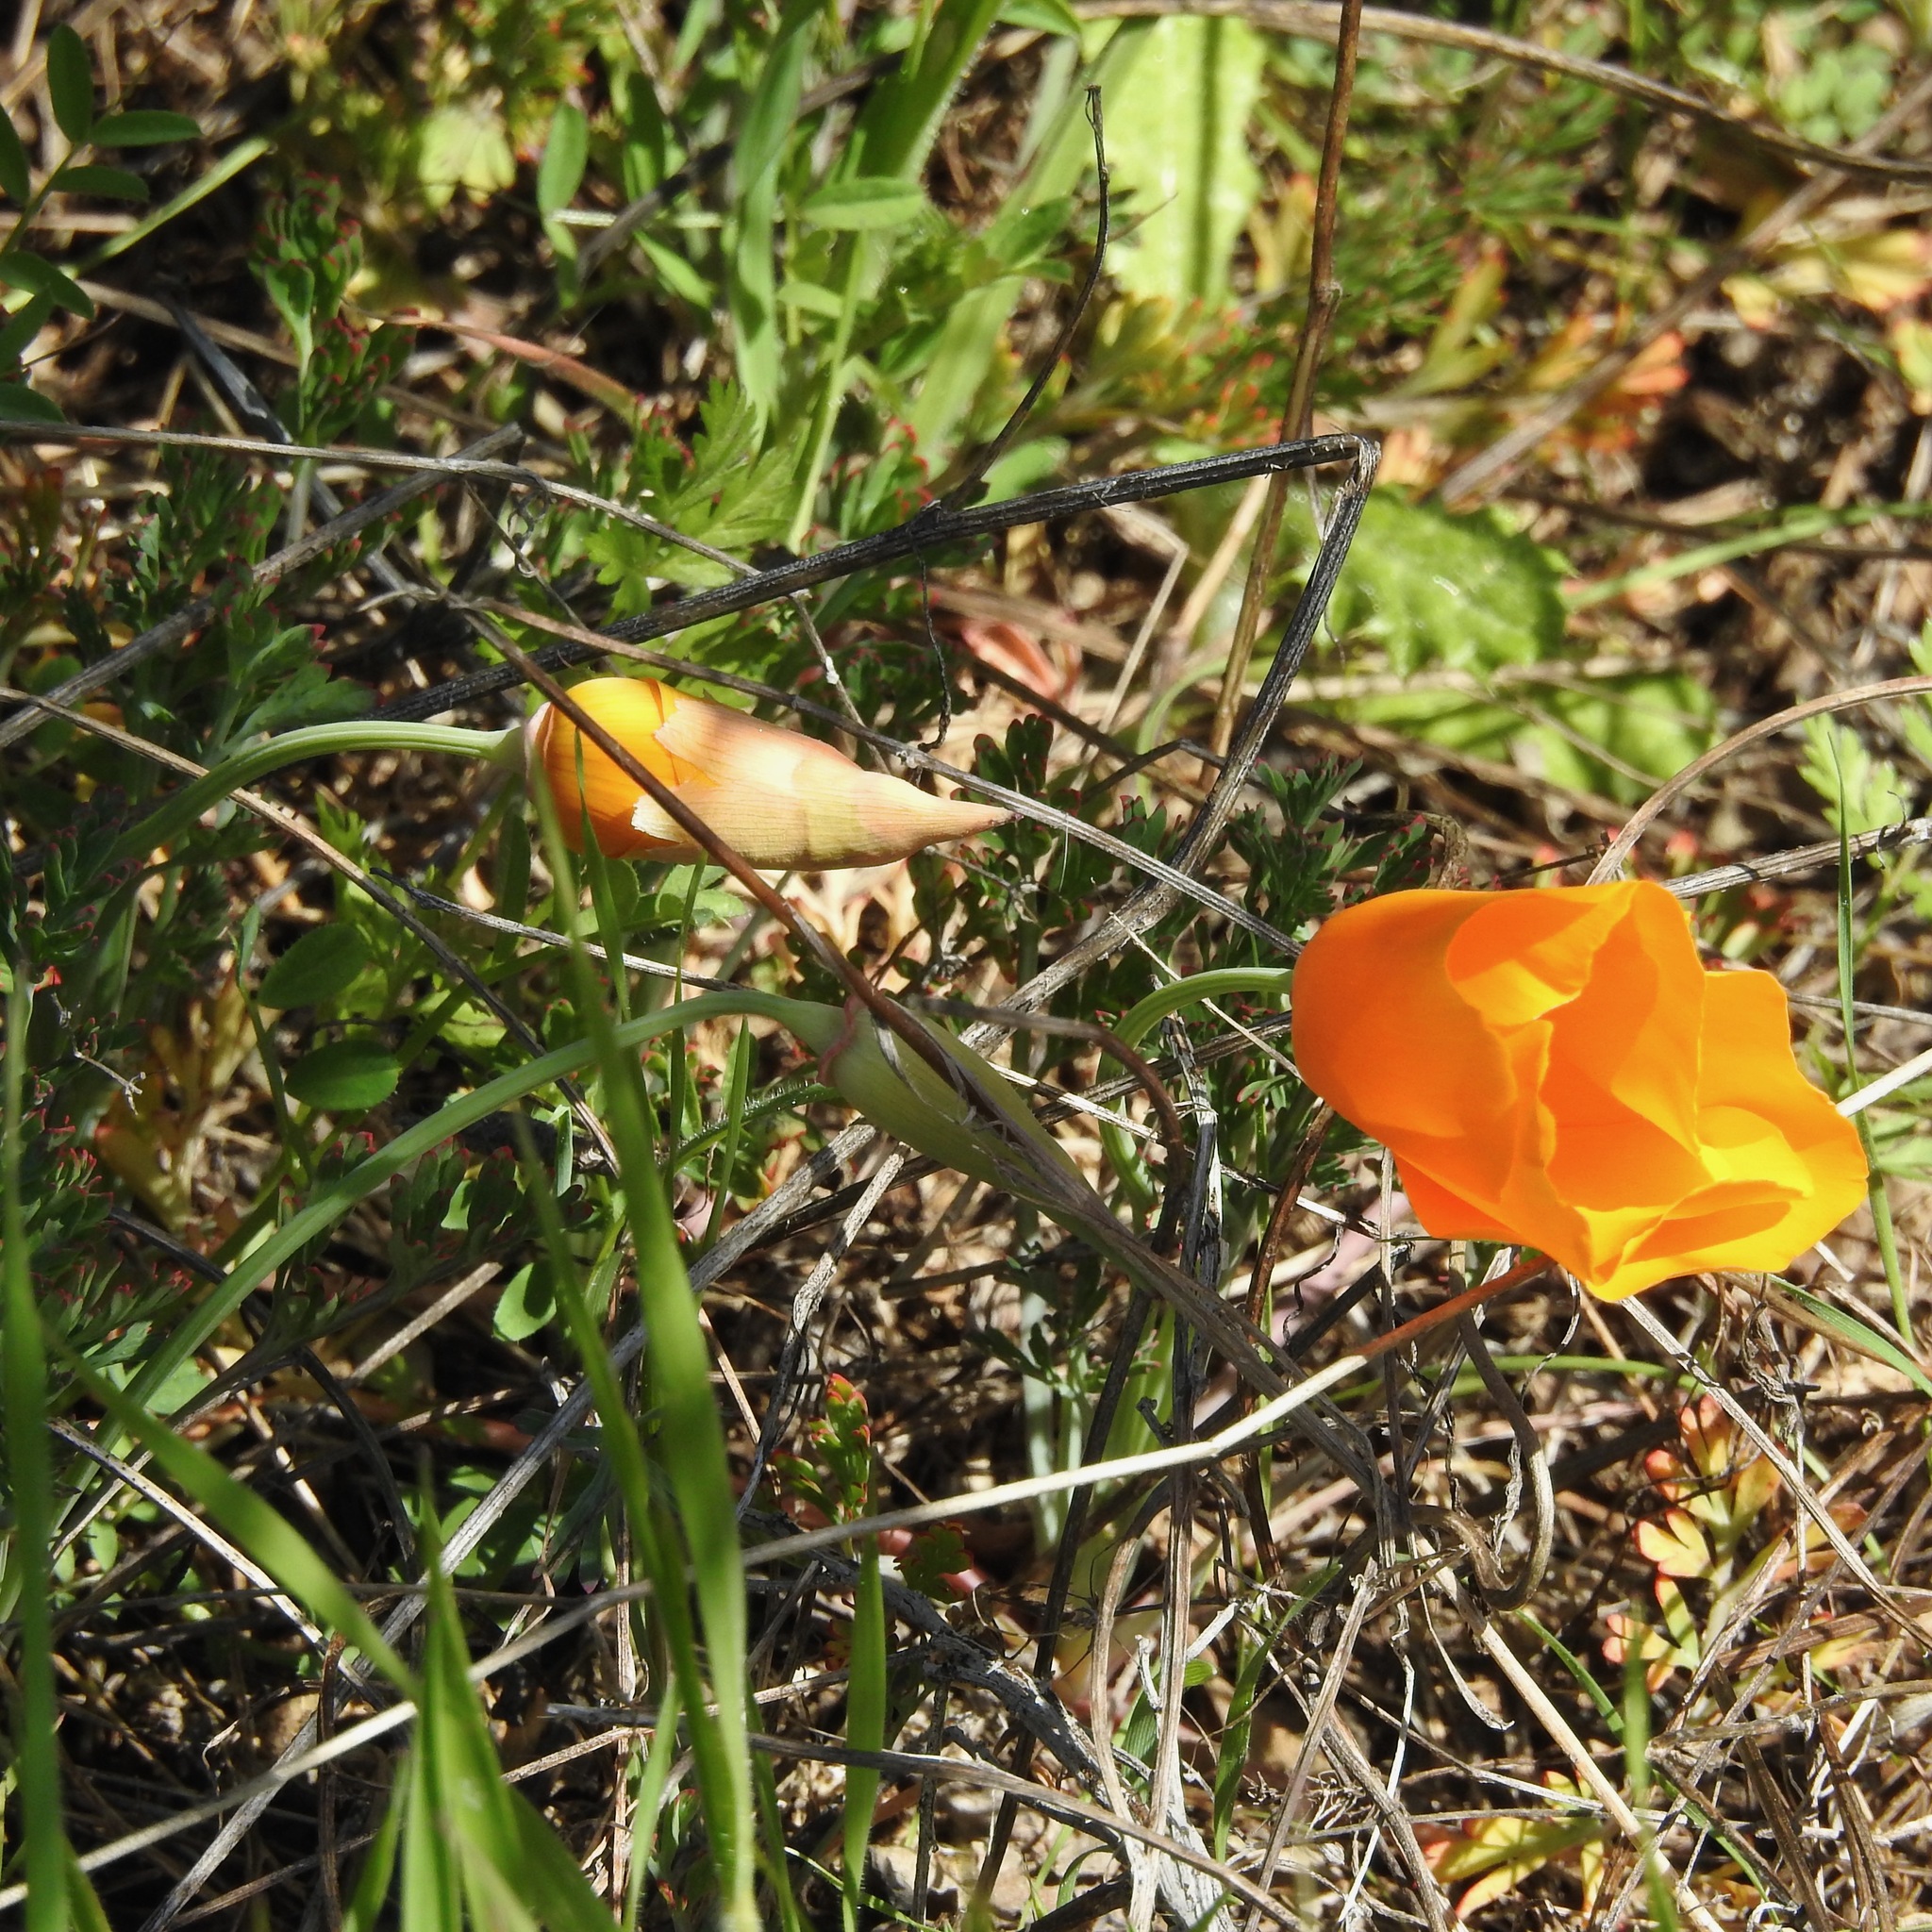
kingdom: Plantae
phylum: Tracheophyta
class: Magnoliopsida
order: Ranunculales
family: Papaveraceae
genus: Eschscholzia
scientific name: Eschscholzia californica
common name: California poppy
